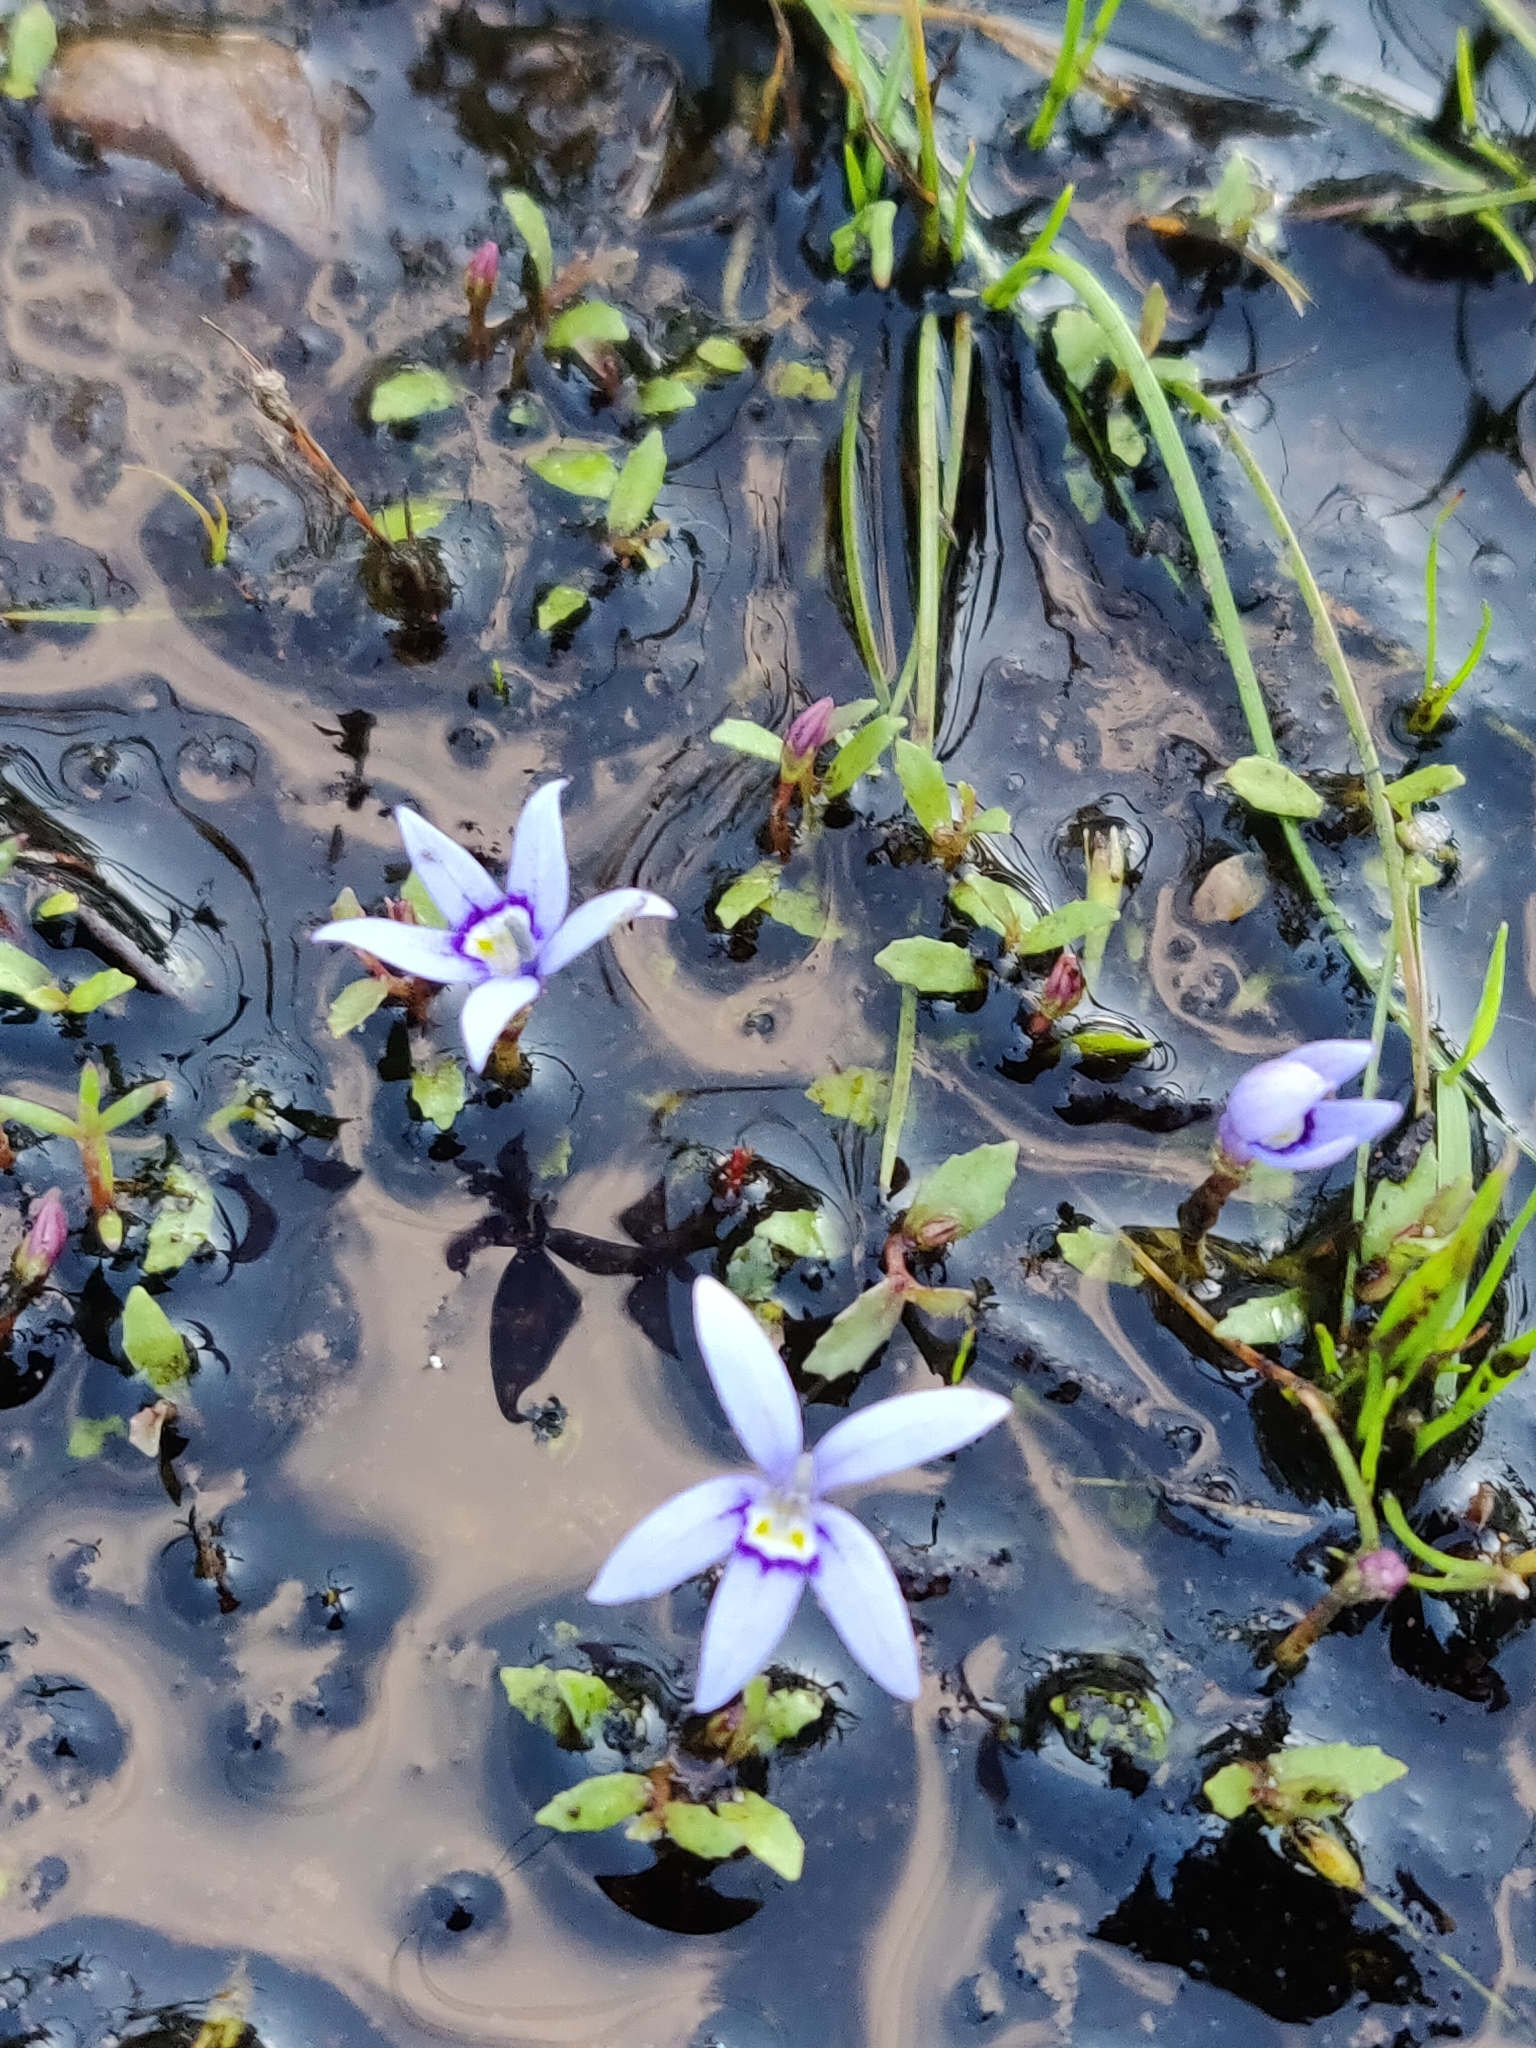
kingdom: Plantae
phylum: Tracheophyta
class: Magnoliopsida
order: Asterales
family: Campanulaceae
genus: Isotoma
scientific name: Isotoma fluviatilis
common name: Isotoma
